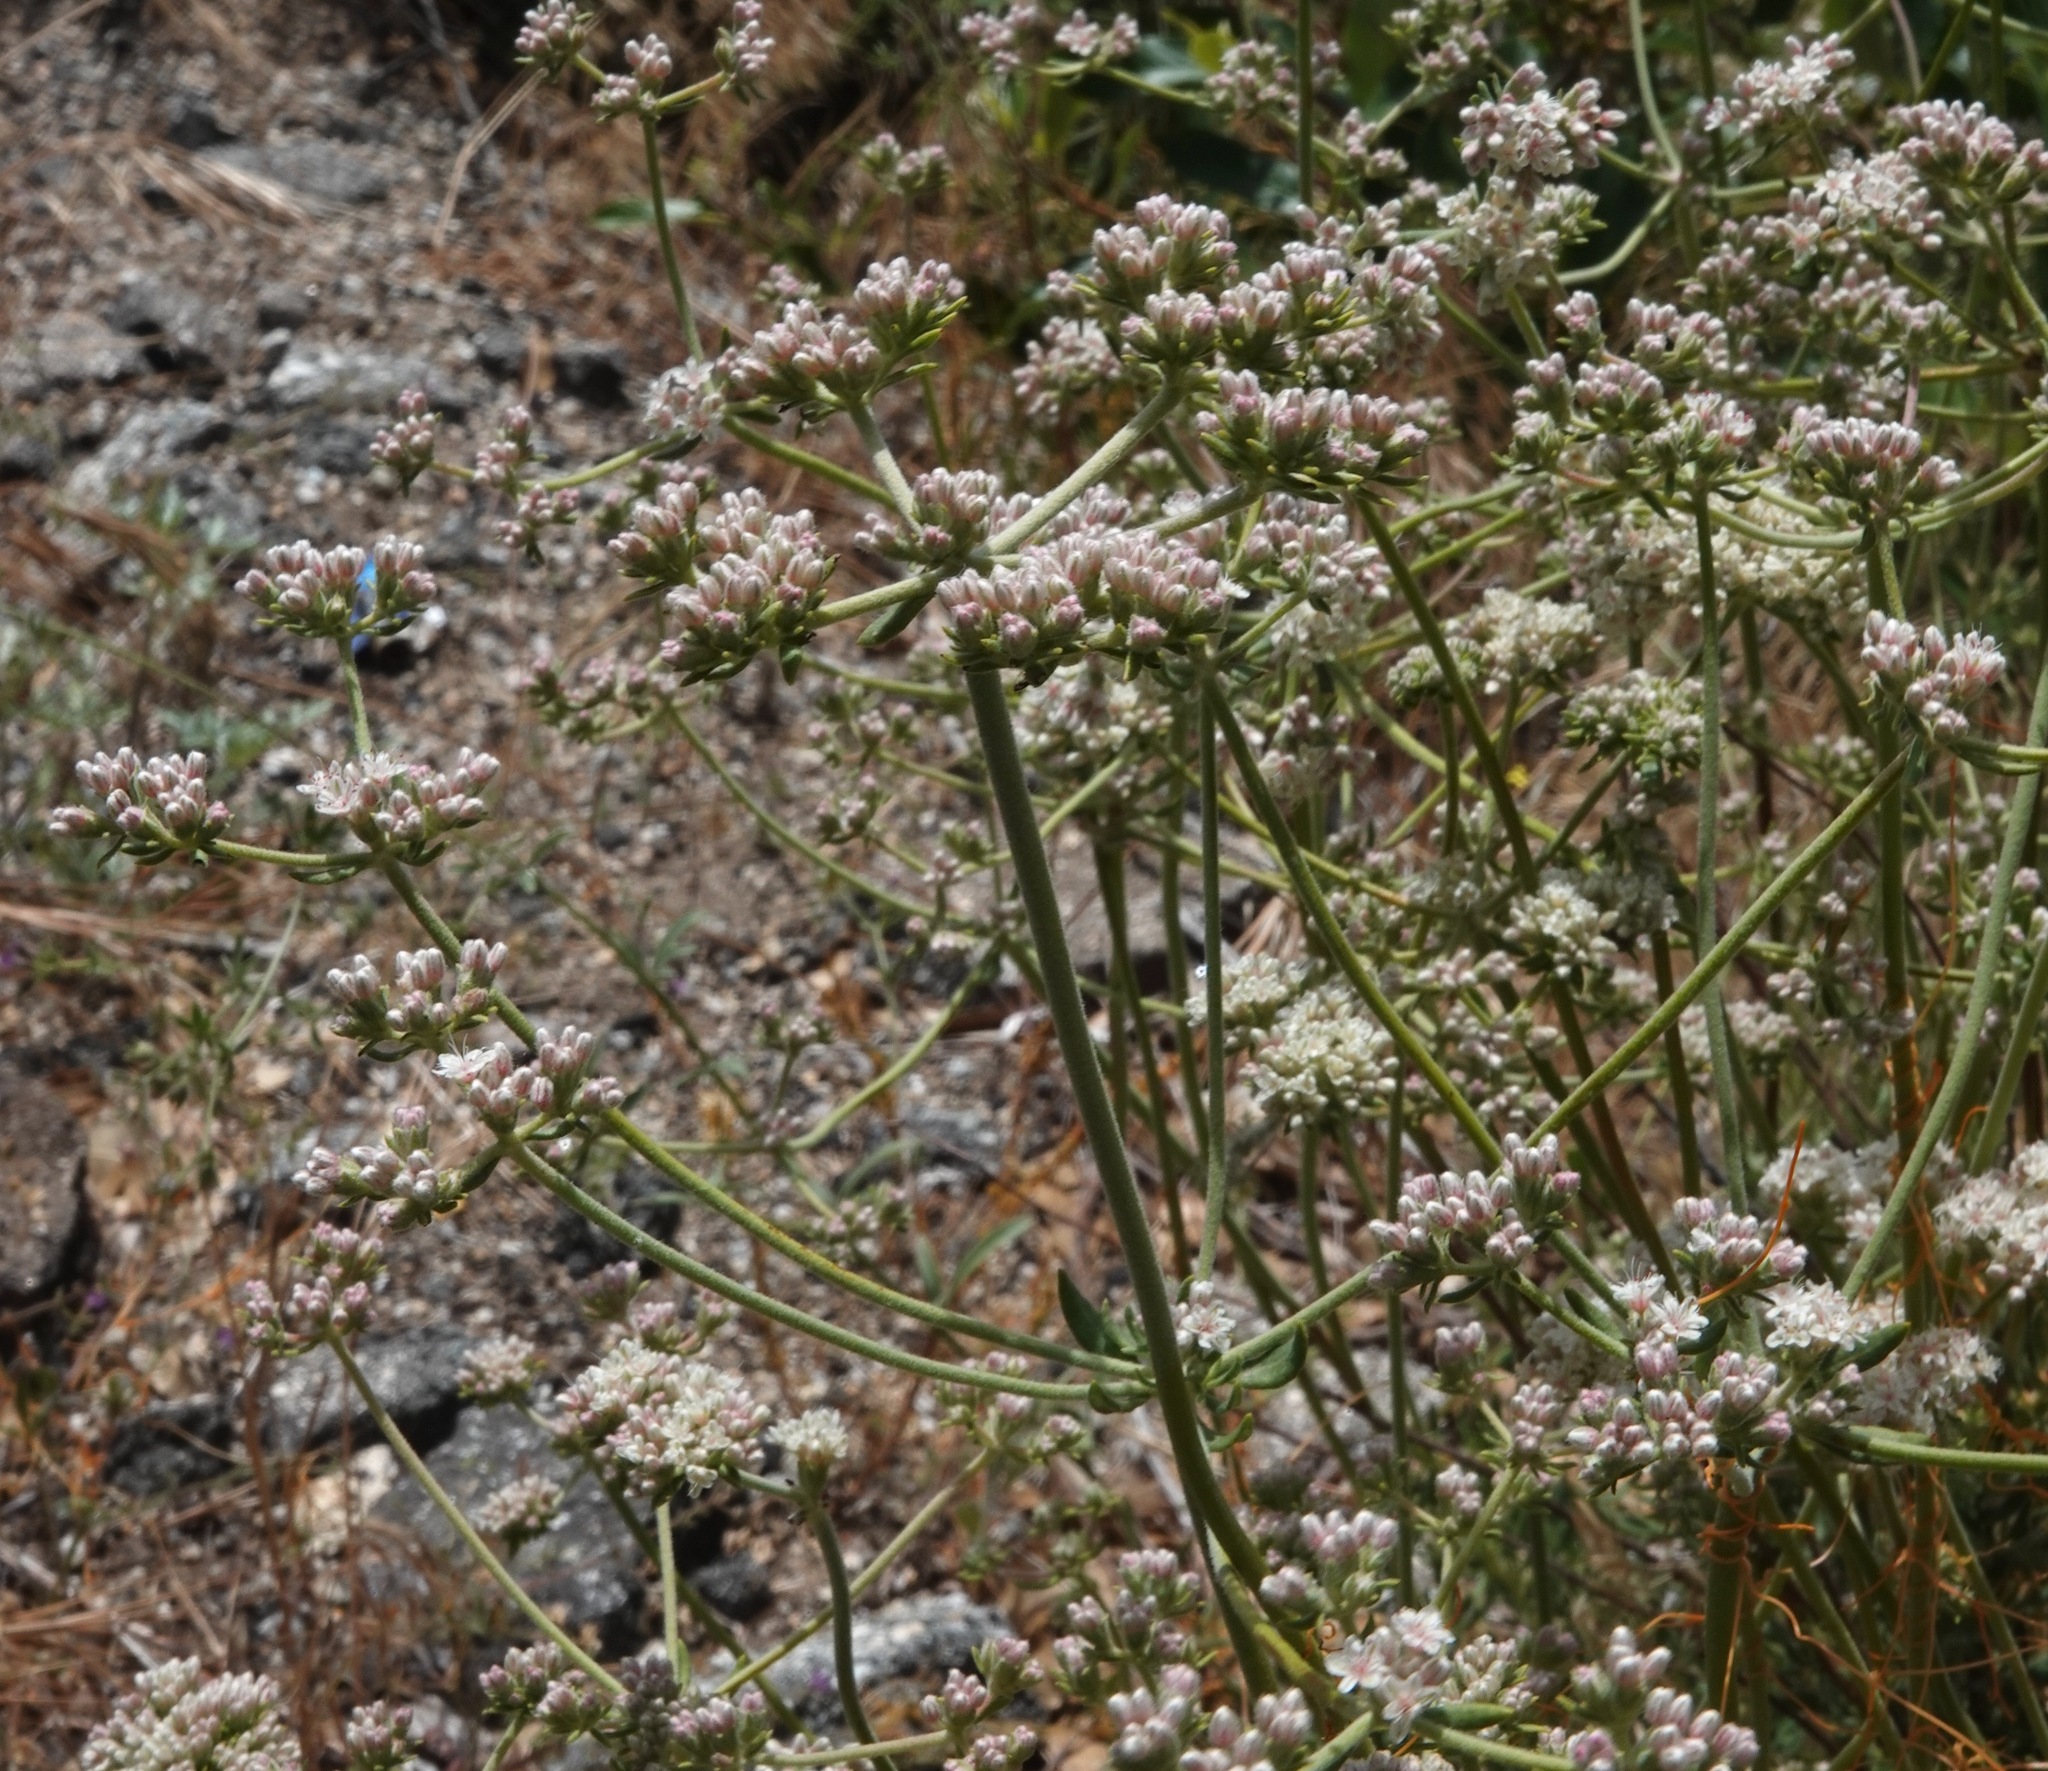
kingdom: Plantae
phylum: Tracheophyta
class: Magnoliopsida
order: Caryophyllales
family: Polygonaceae
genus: Eriogonum
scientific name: Eriogonum fasciculatum
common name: California wild buckwheat
